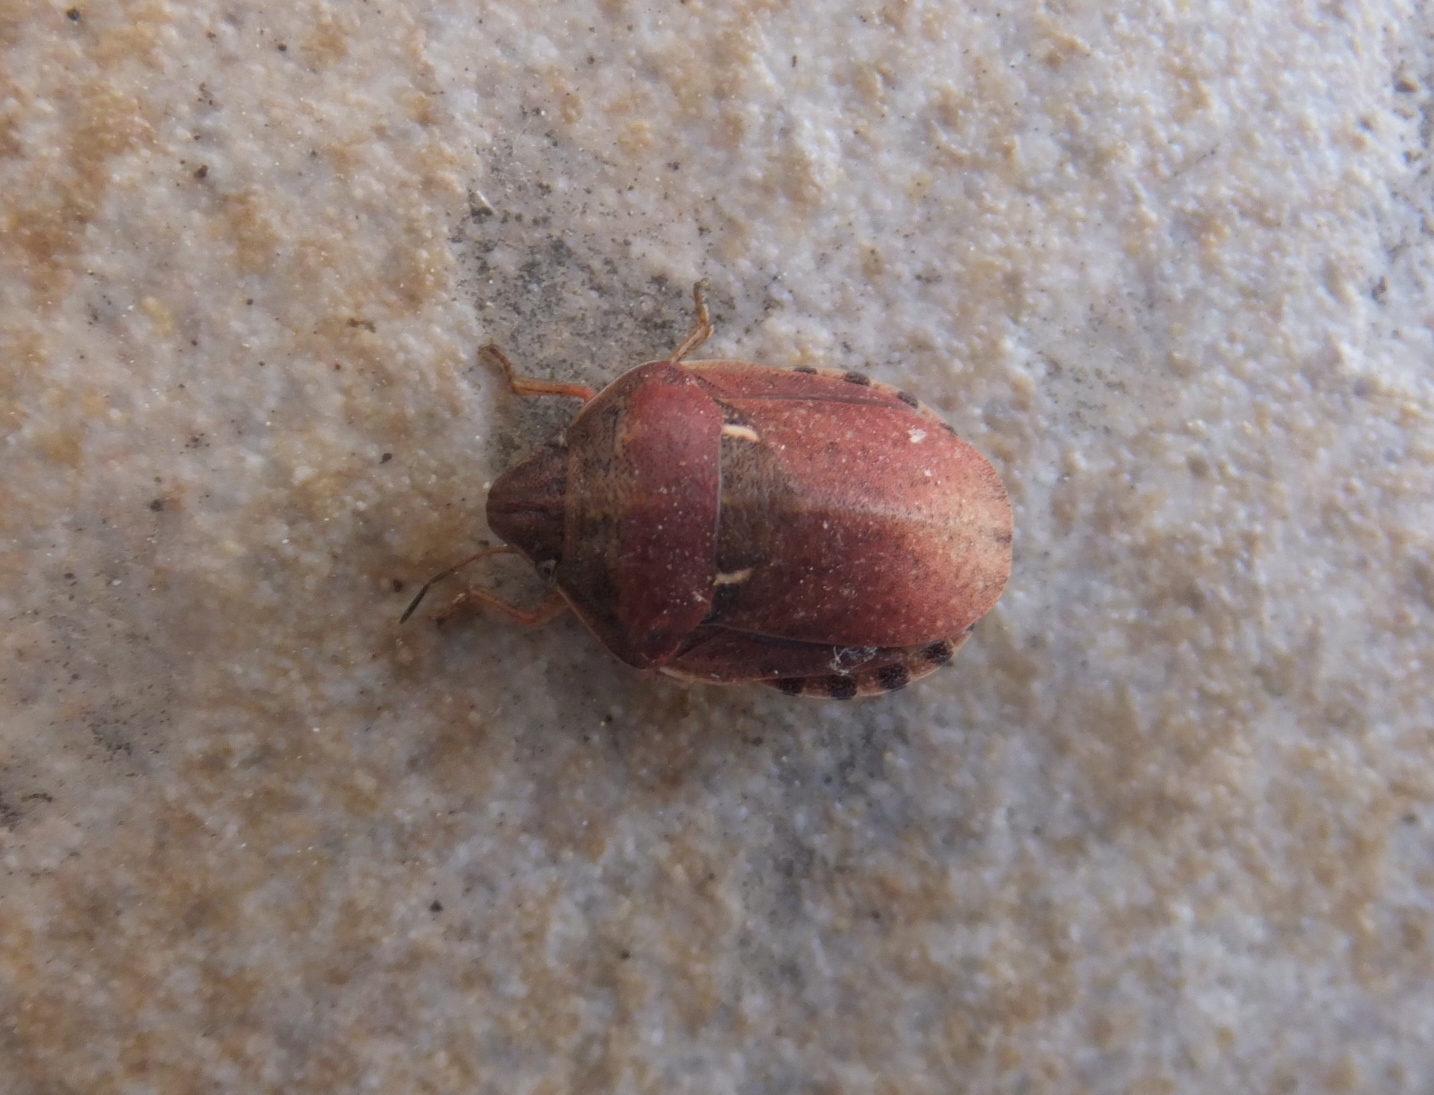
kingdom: Animalia
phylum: Arthropoda
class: Insecta
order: Hemiptera
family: Scutelleridae
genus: Eurygaster
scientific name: Eurygaster maura
